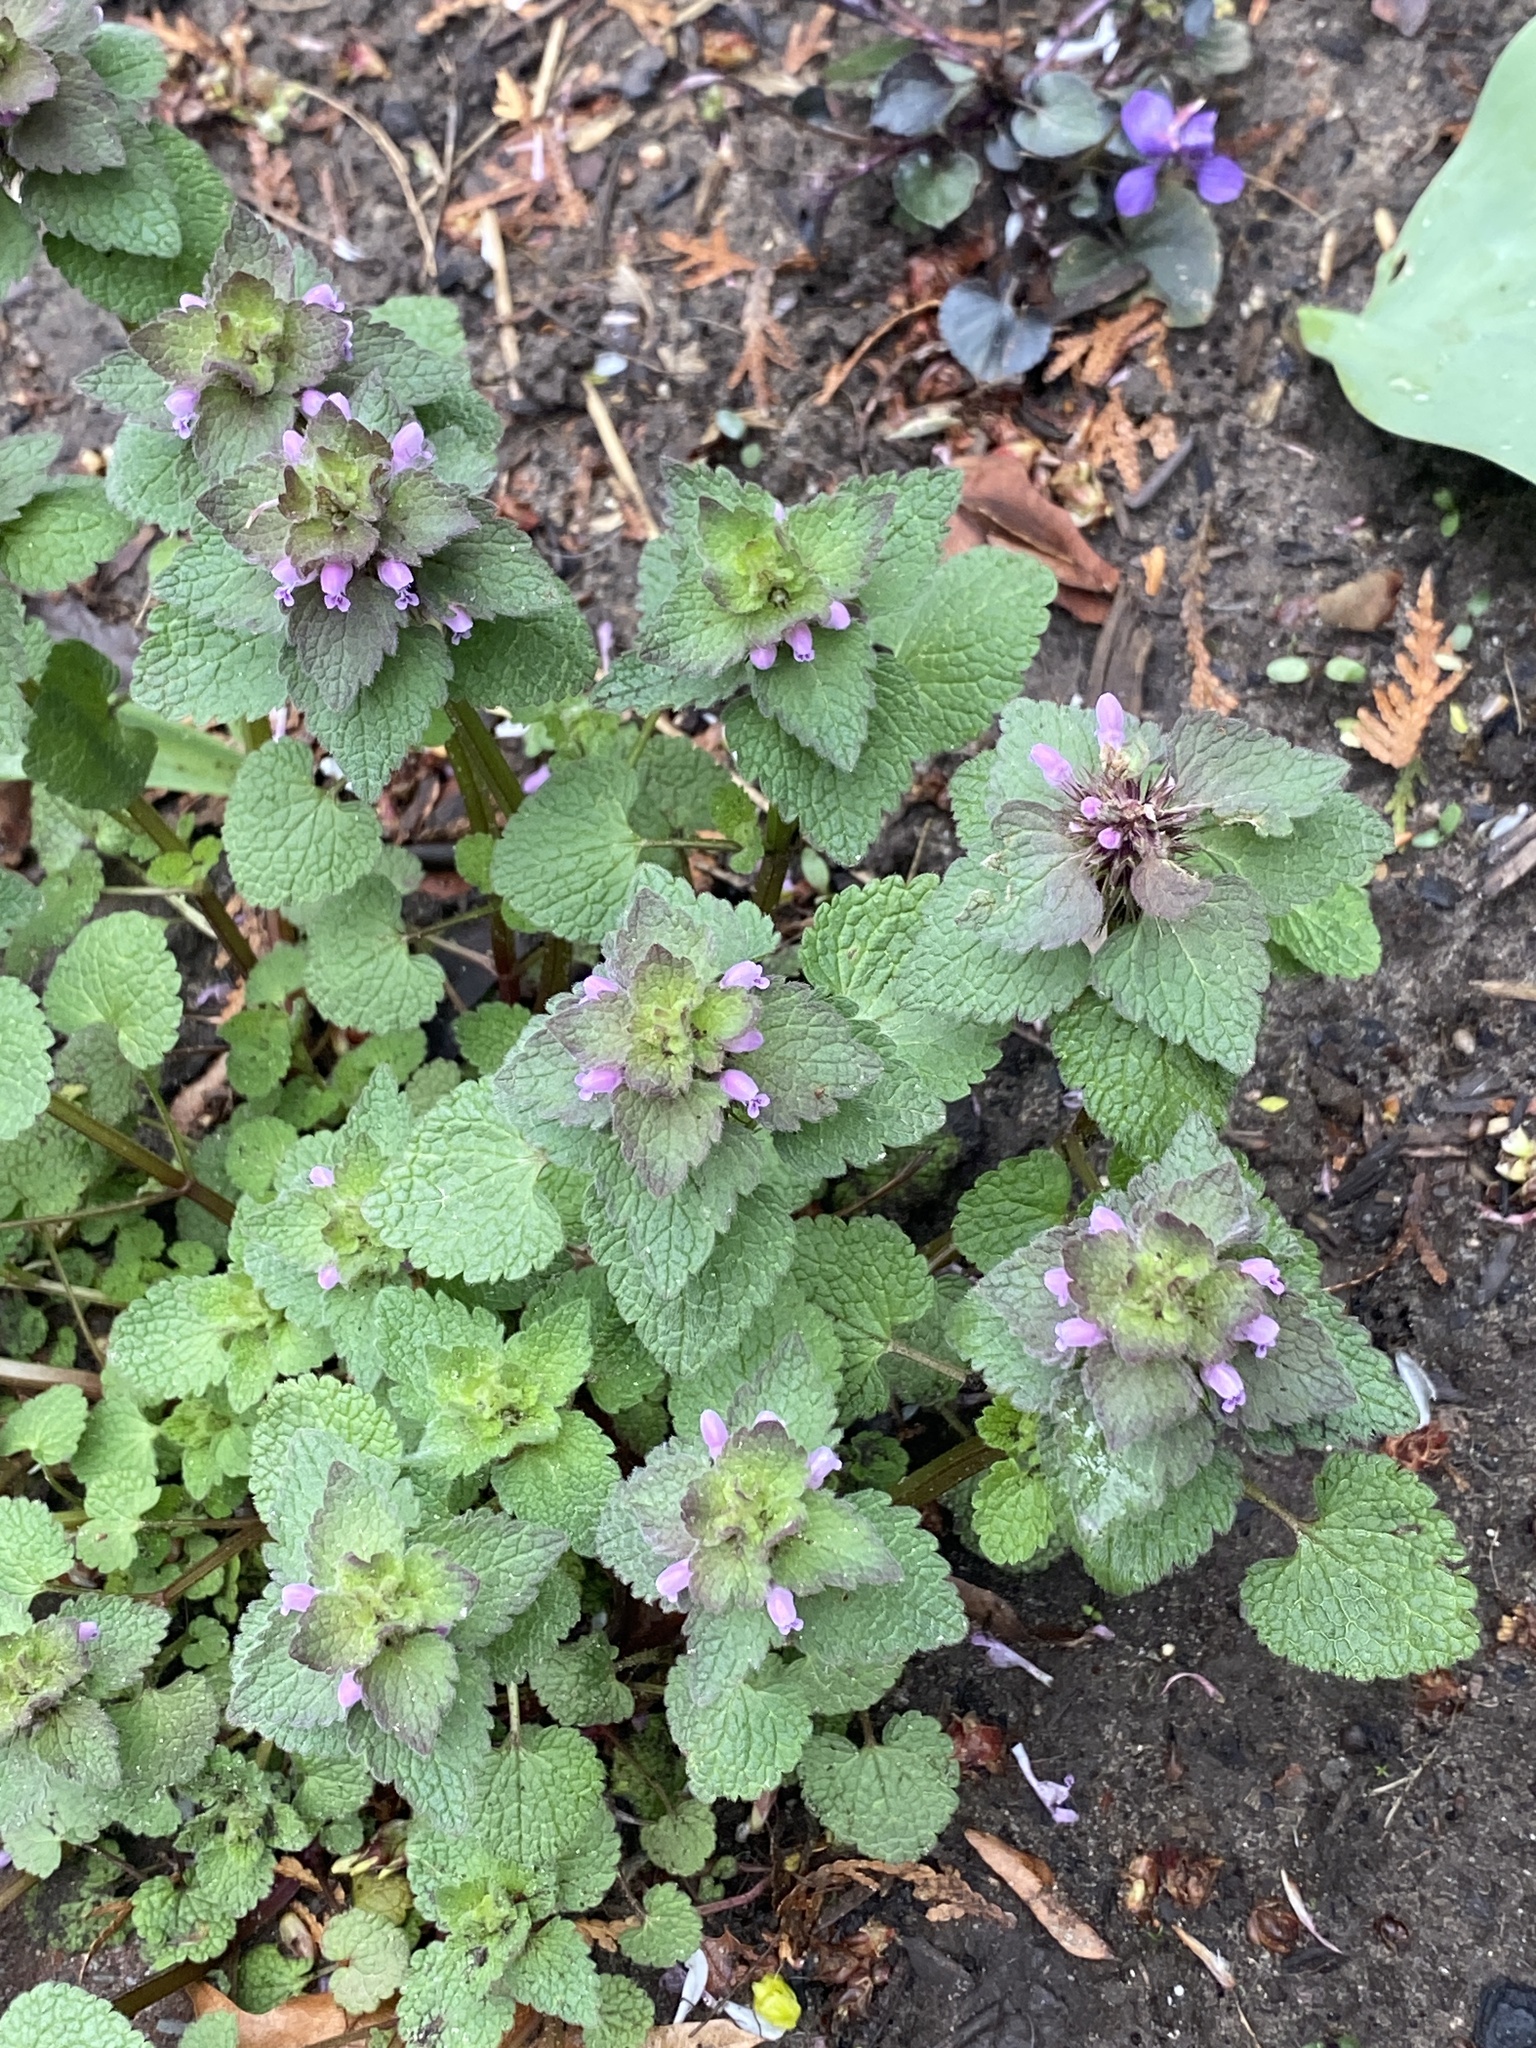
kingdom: Plantae
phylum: Tracheophyta
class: Magnoliopsida
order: Lamiales
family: Lamiaceae
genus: Lamium
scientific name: Lamium purpureum
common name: Red dead-nettle
